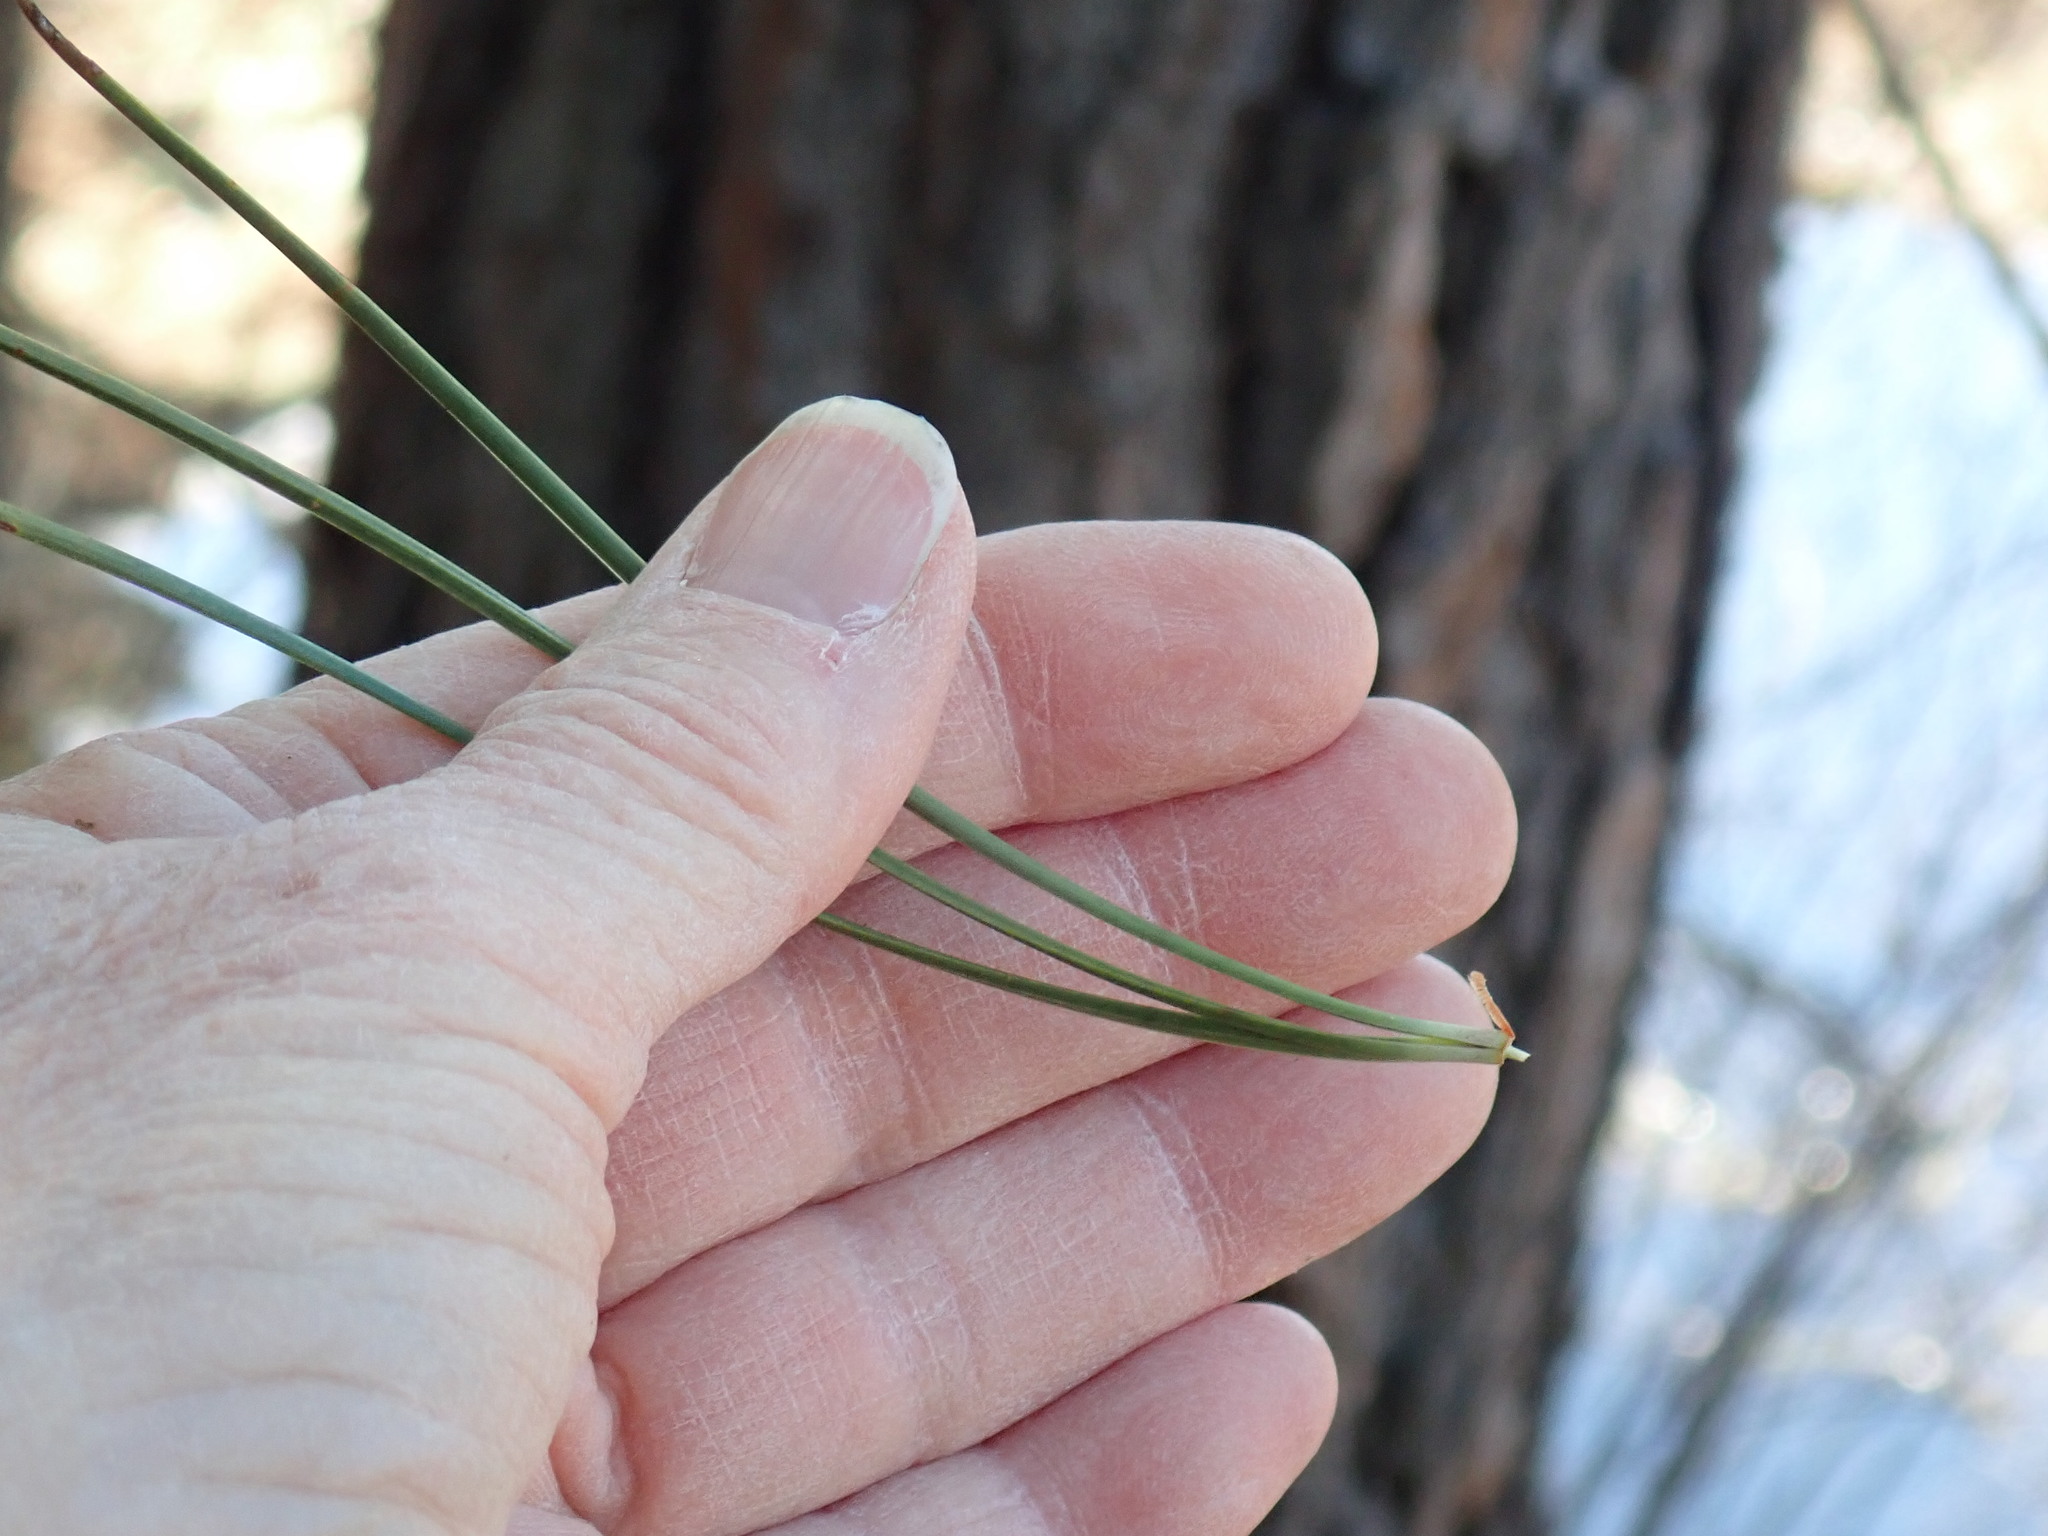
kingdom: Plantae
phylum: Tracheophyta
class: Pinopsida
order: Pinales
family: Pinaceae
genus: Pinus
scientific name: Pinus rigida
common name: Pitch pine
